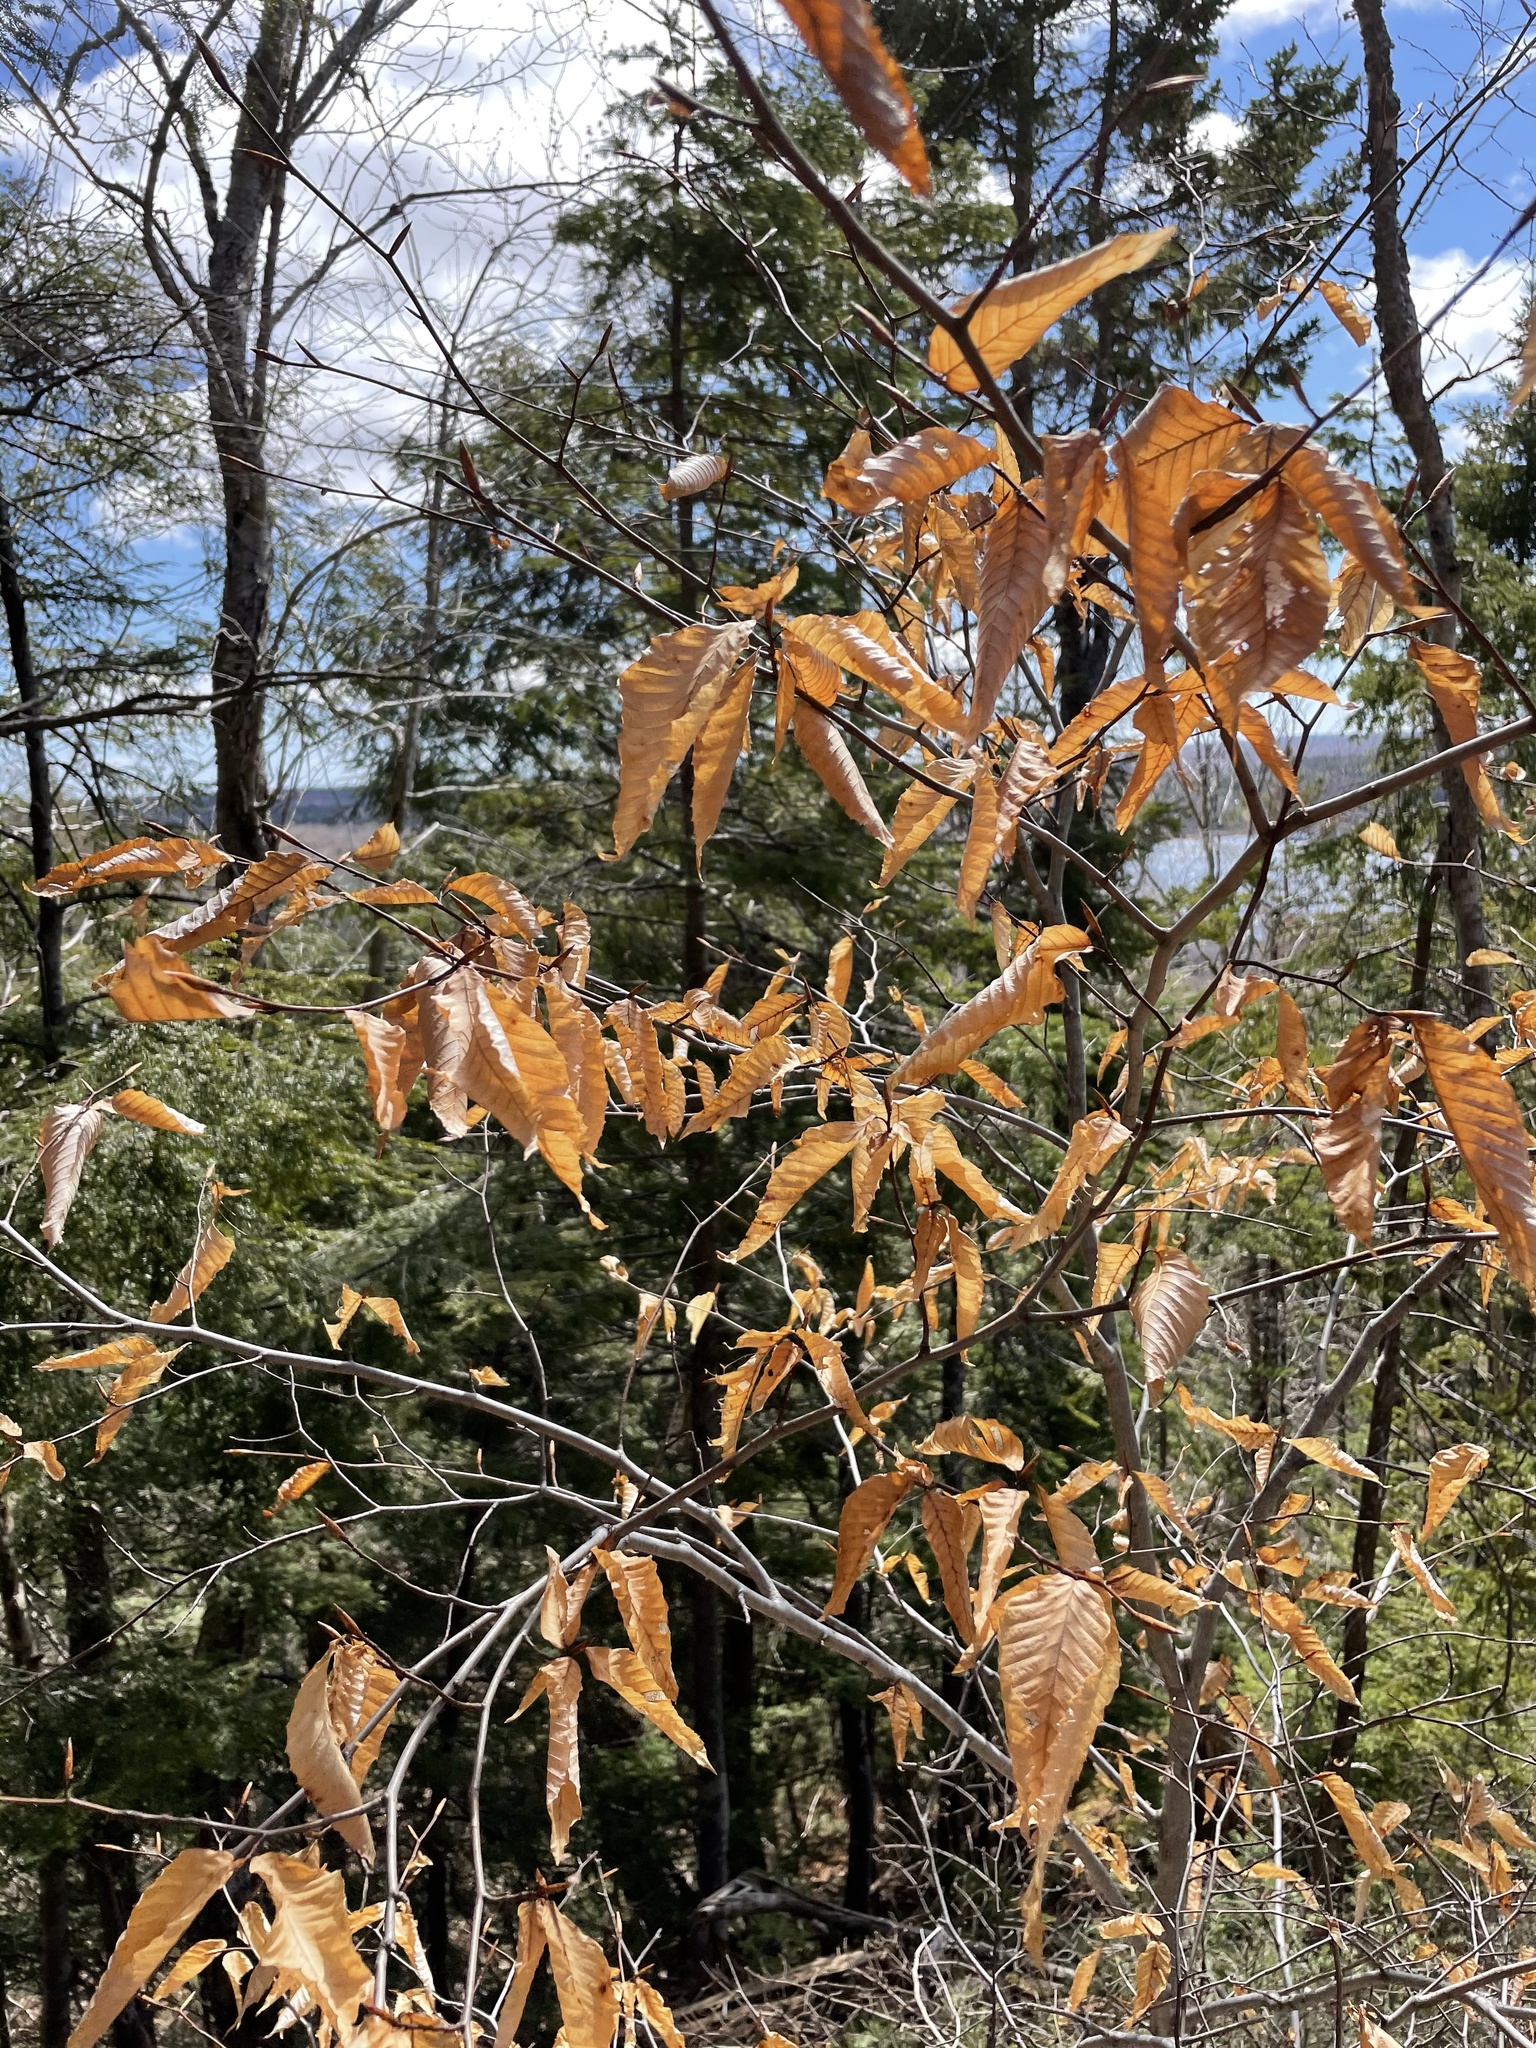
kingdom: Plantae
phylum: Tracheophyta
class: Magnoliopsida
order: Fagales
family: Fagaceae
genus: Fagus
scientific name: Fagus grandifolia
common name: American beech
